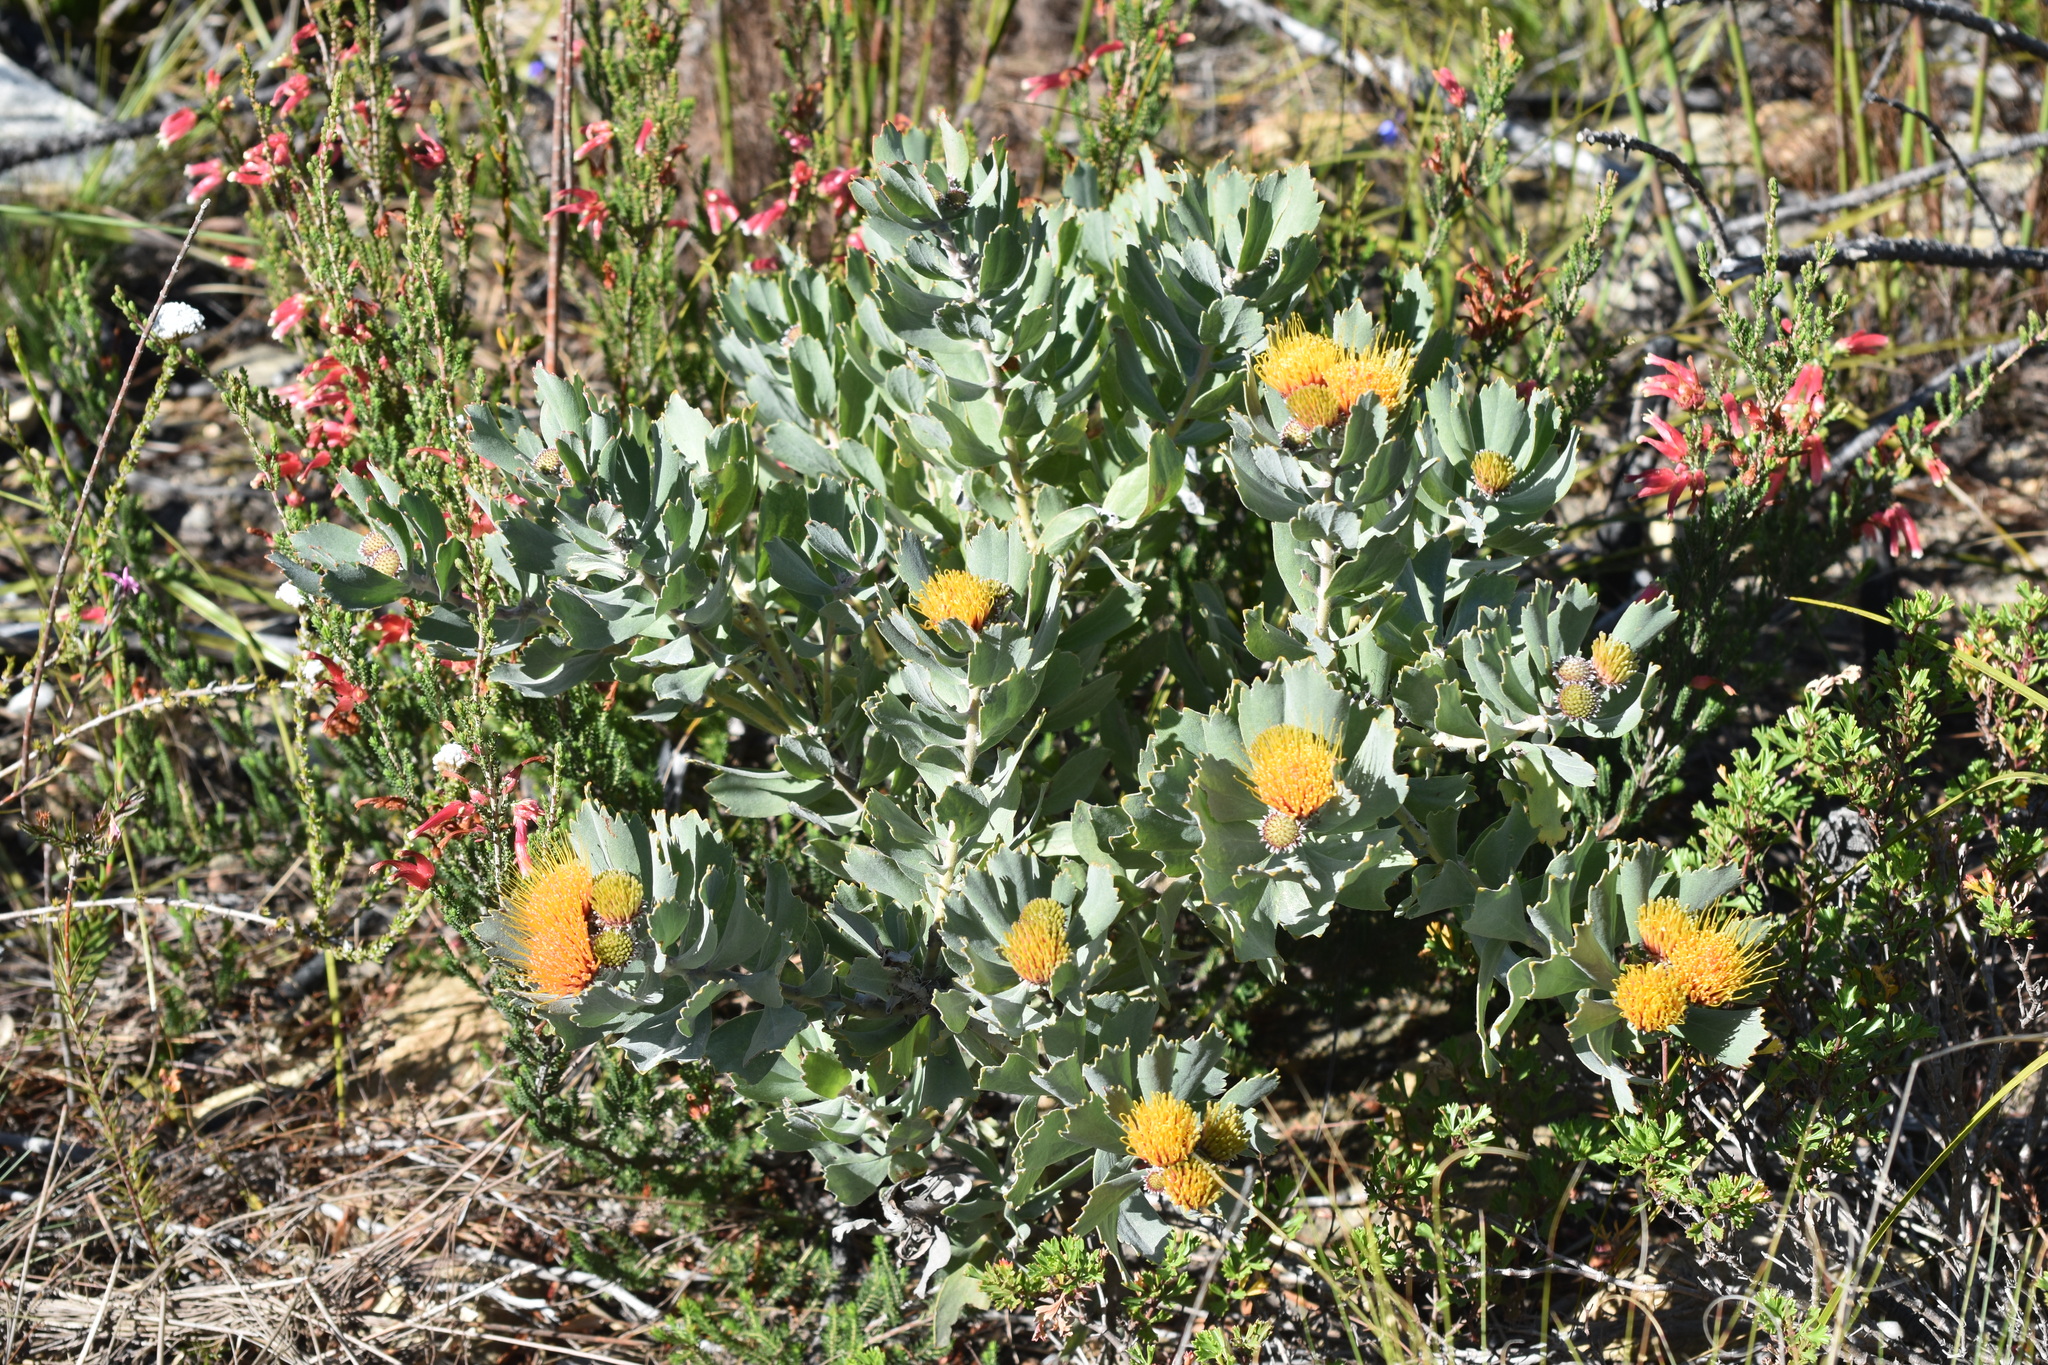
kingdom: Plantae
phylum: Tracheophyta
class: Magnoliopsida
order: Proteales
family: Proteaceae
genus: Leucospermum
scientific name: Leucospermum mundii
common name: Langeberg pincushion
